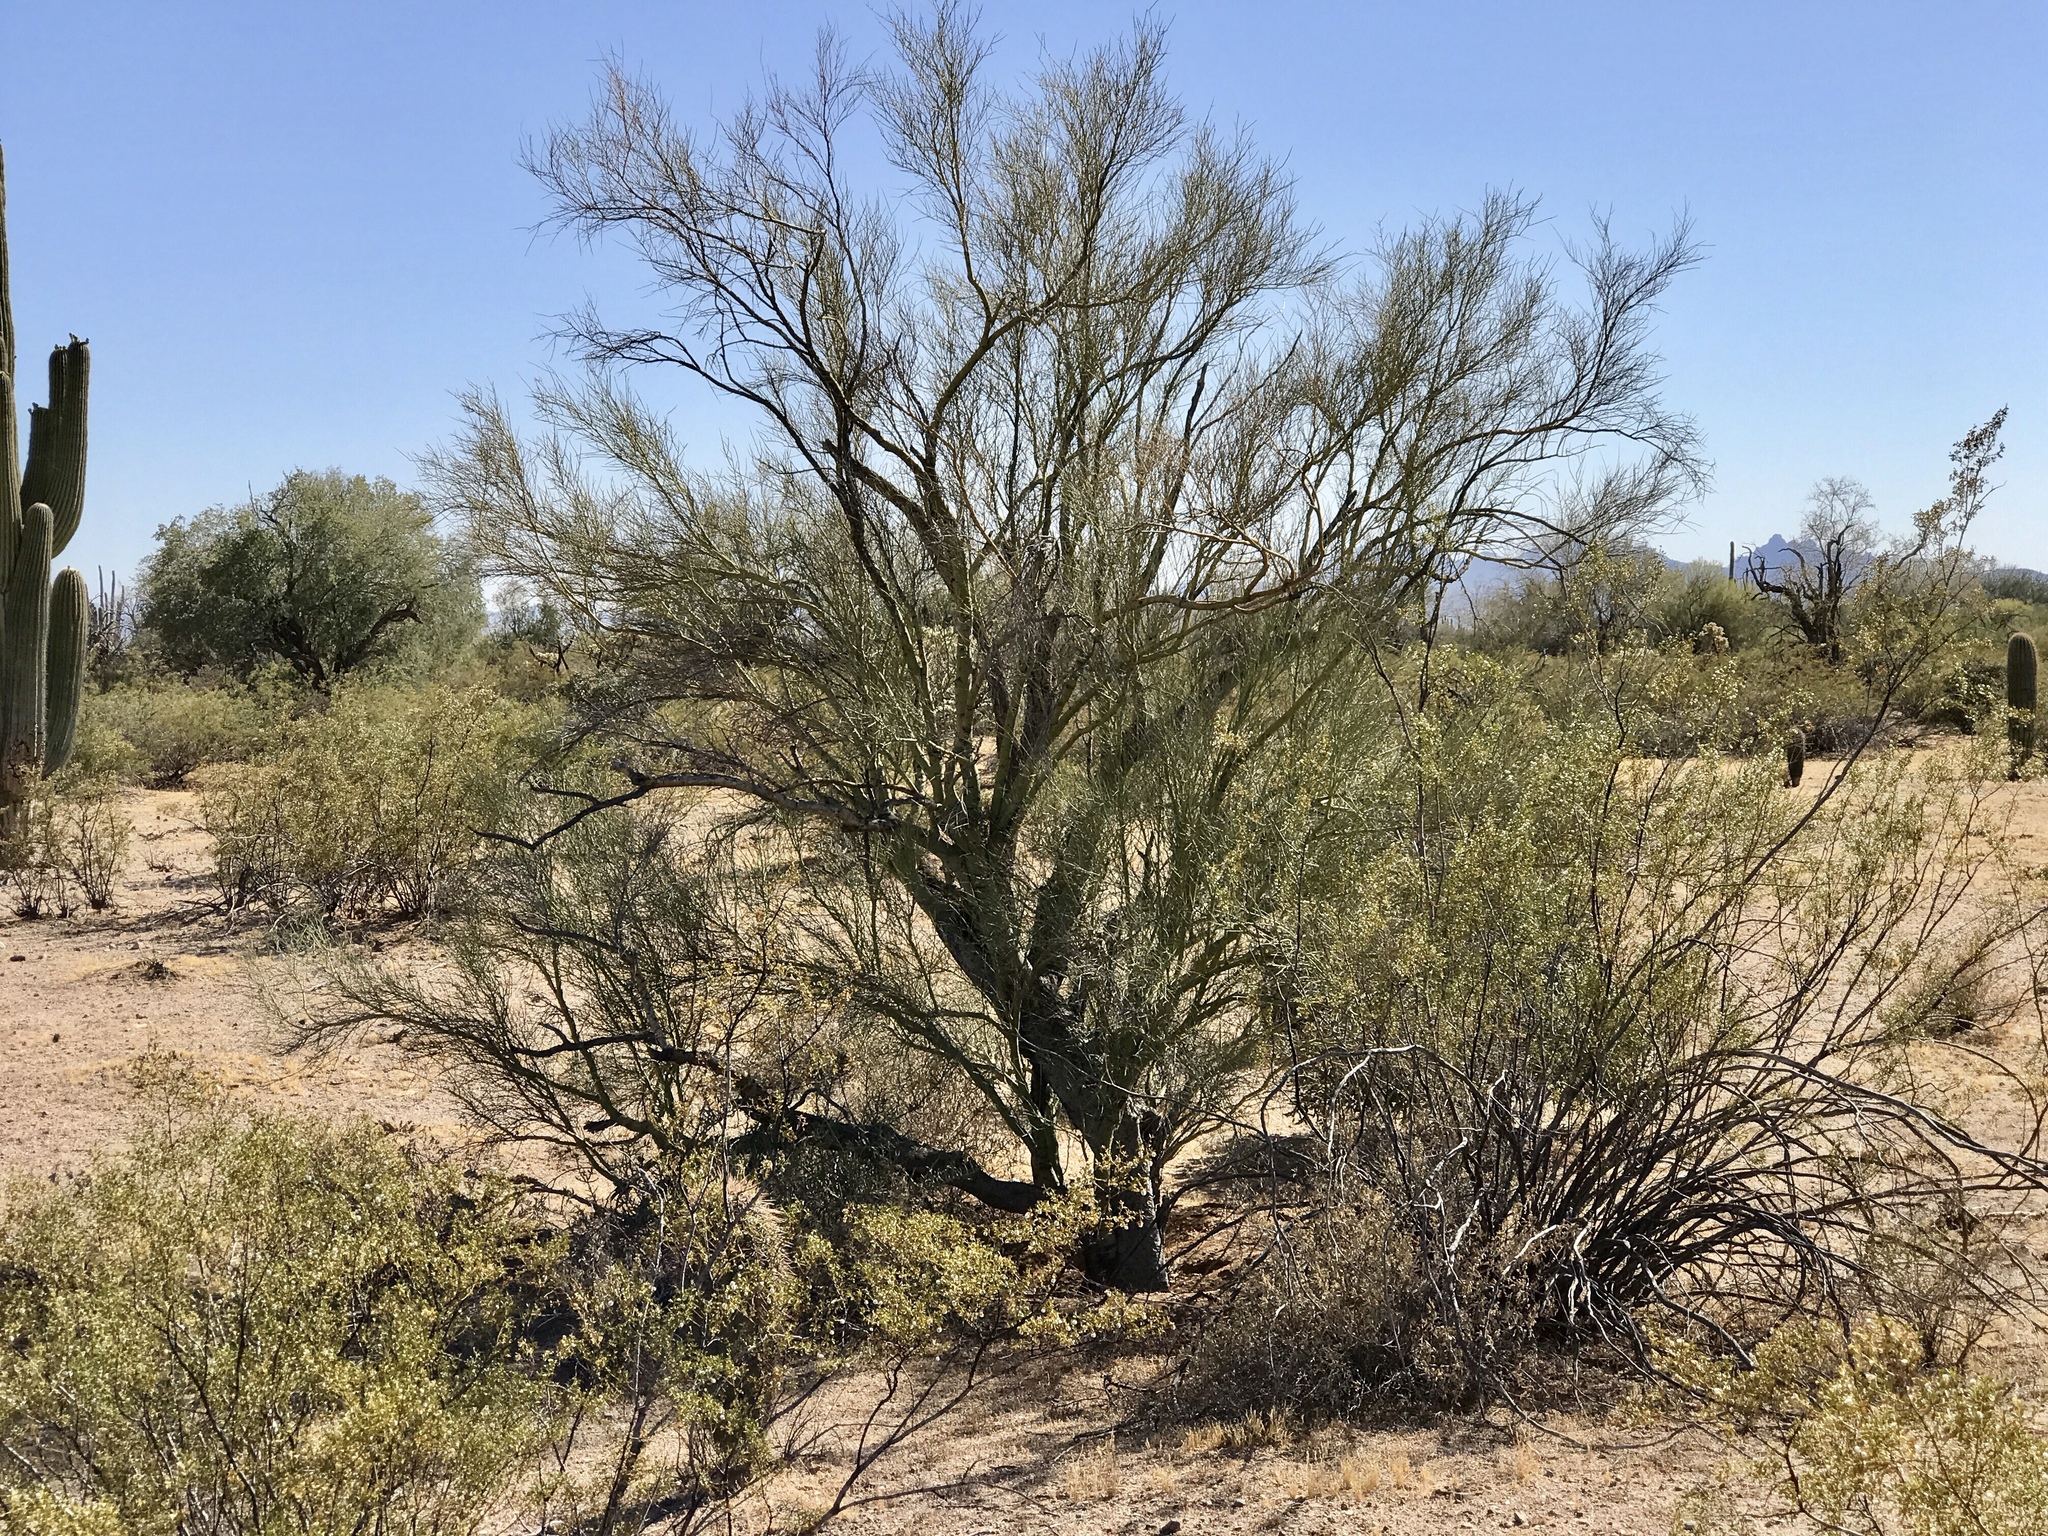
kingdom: Plantae
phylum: Tracheophyta
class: Magnoliopsida
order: Fabales
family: Fabaceae
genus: Parkinsonia
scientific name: Parkinsonia microphylla
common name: Yellow paloverde
